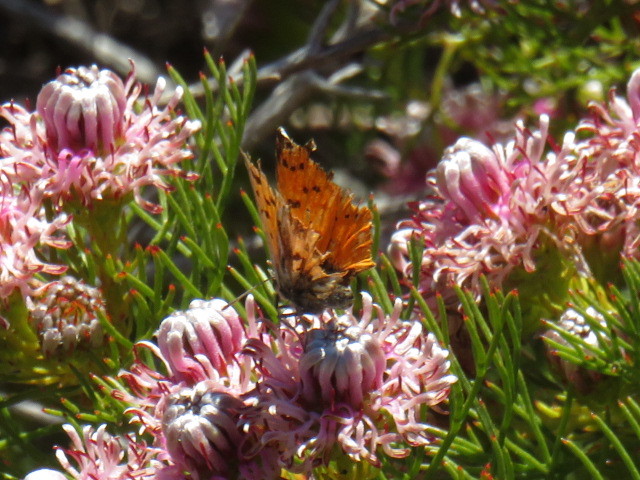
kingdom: Animalia
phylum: Arthropoda
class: Insecta
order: Lepidoptera
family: Lycaenidae
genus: Chrysoritis
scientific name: Chrysoritis
